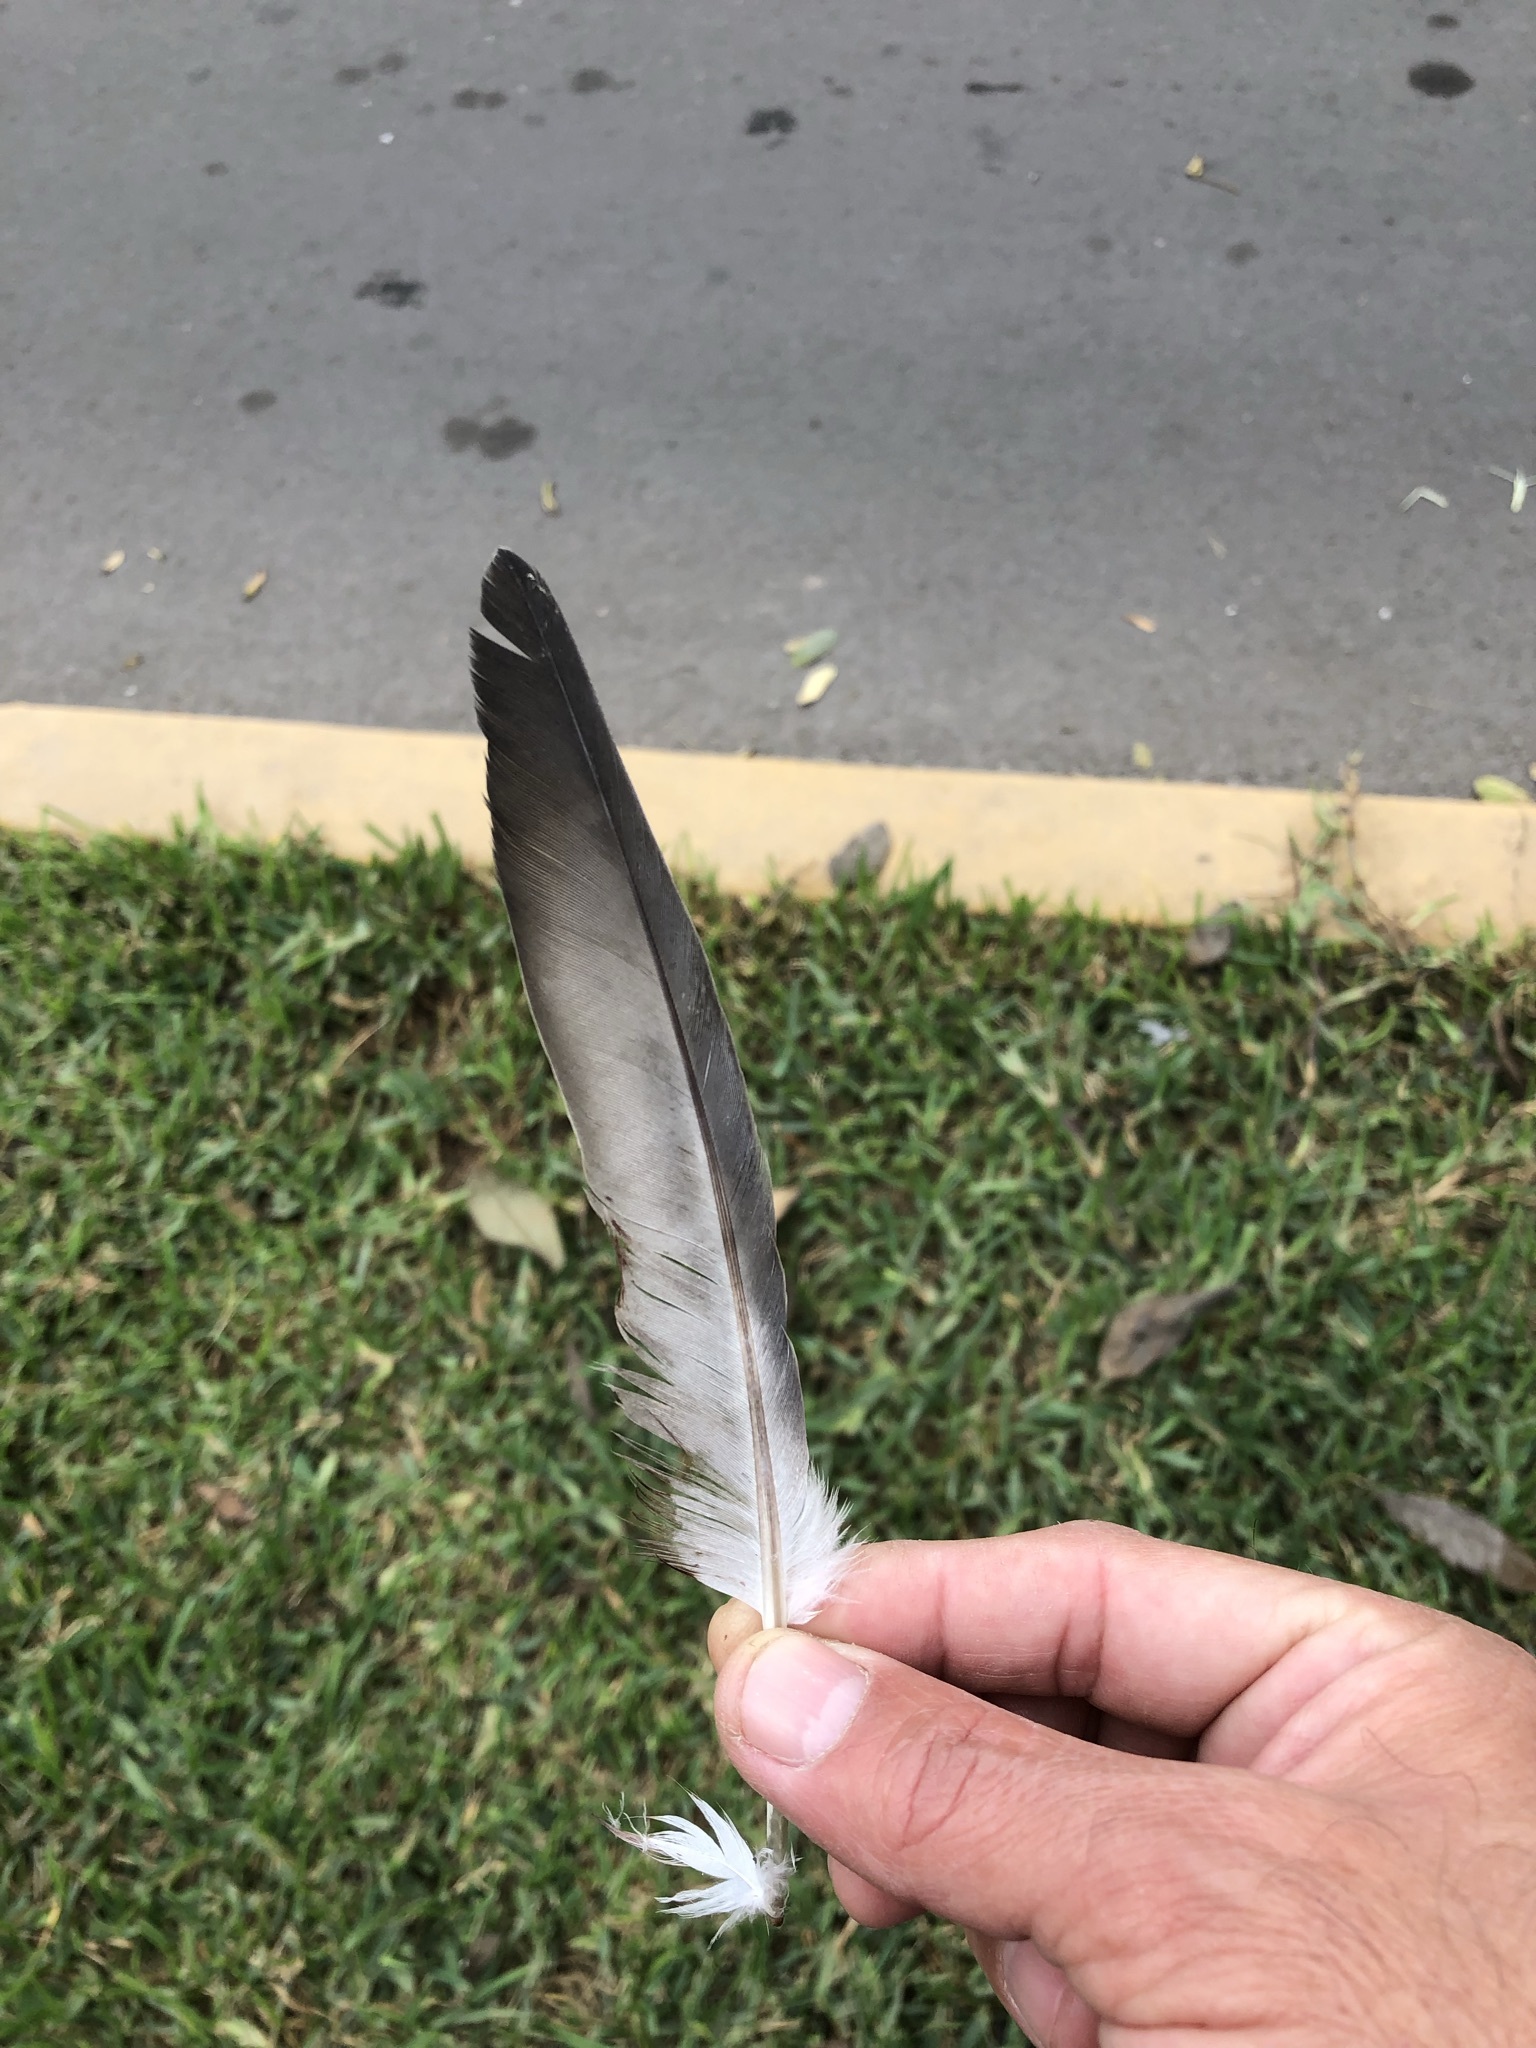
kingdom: Animalia
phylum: Chordata
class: Aves
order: Columbiformes
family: Columbidae
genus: Columba
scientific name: Columba livia
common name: Rock pigeon
